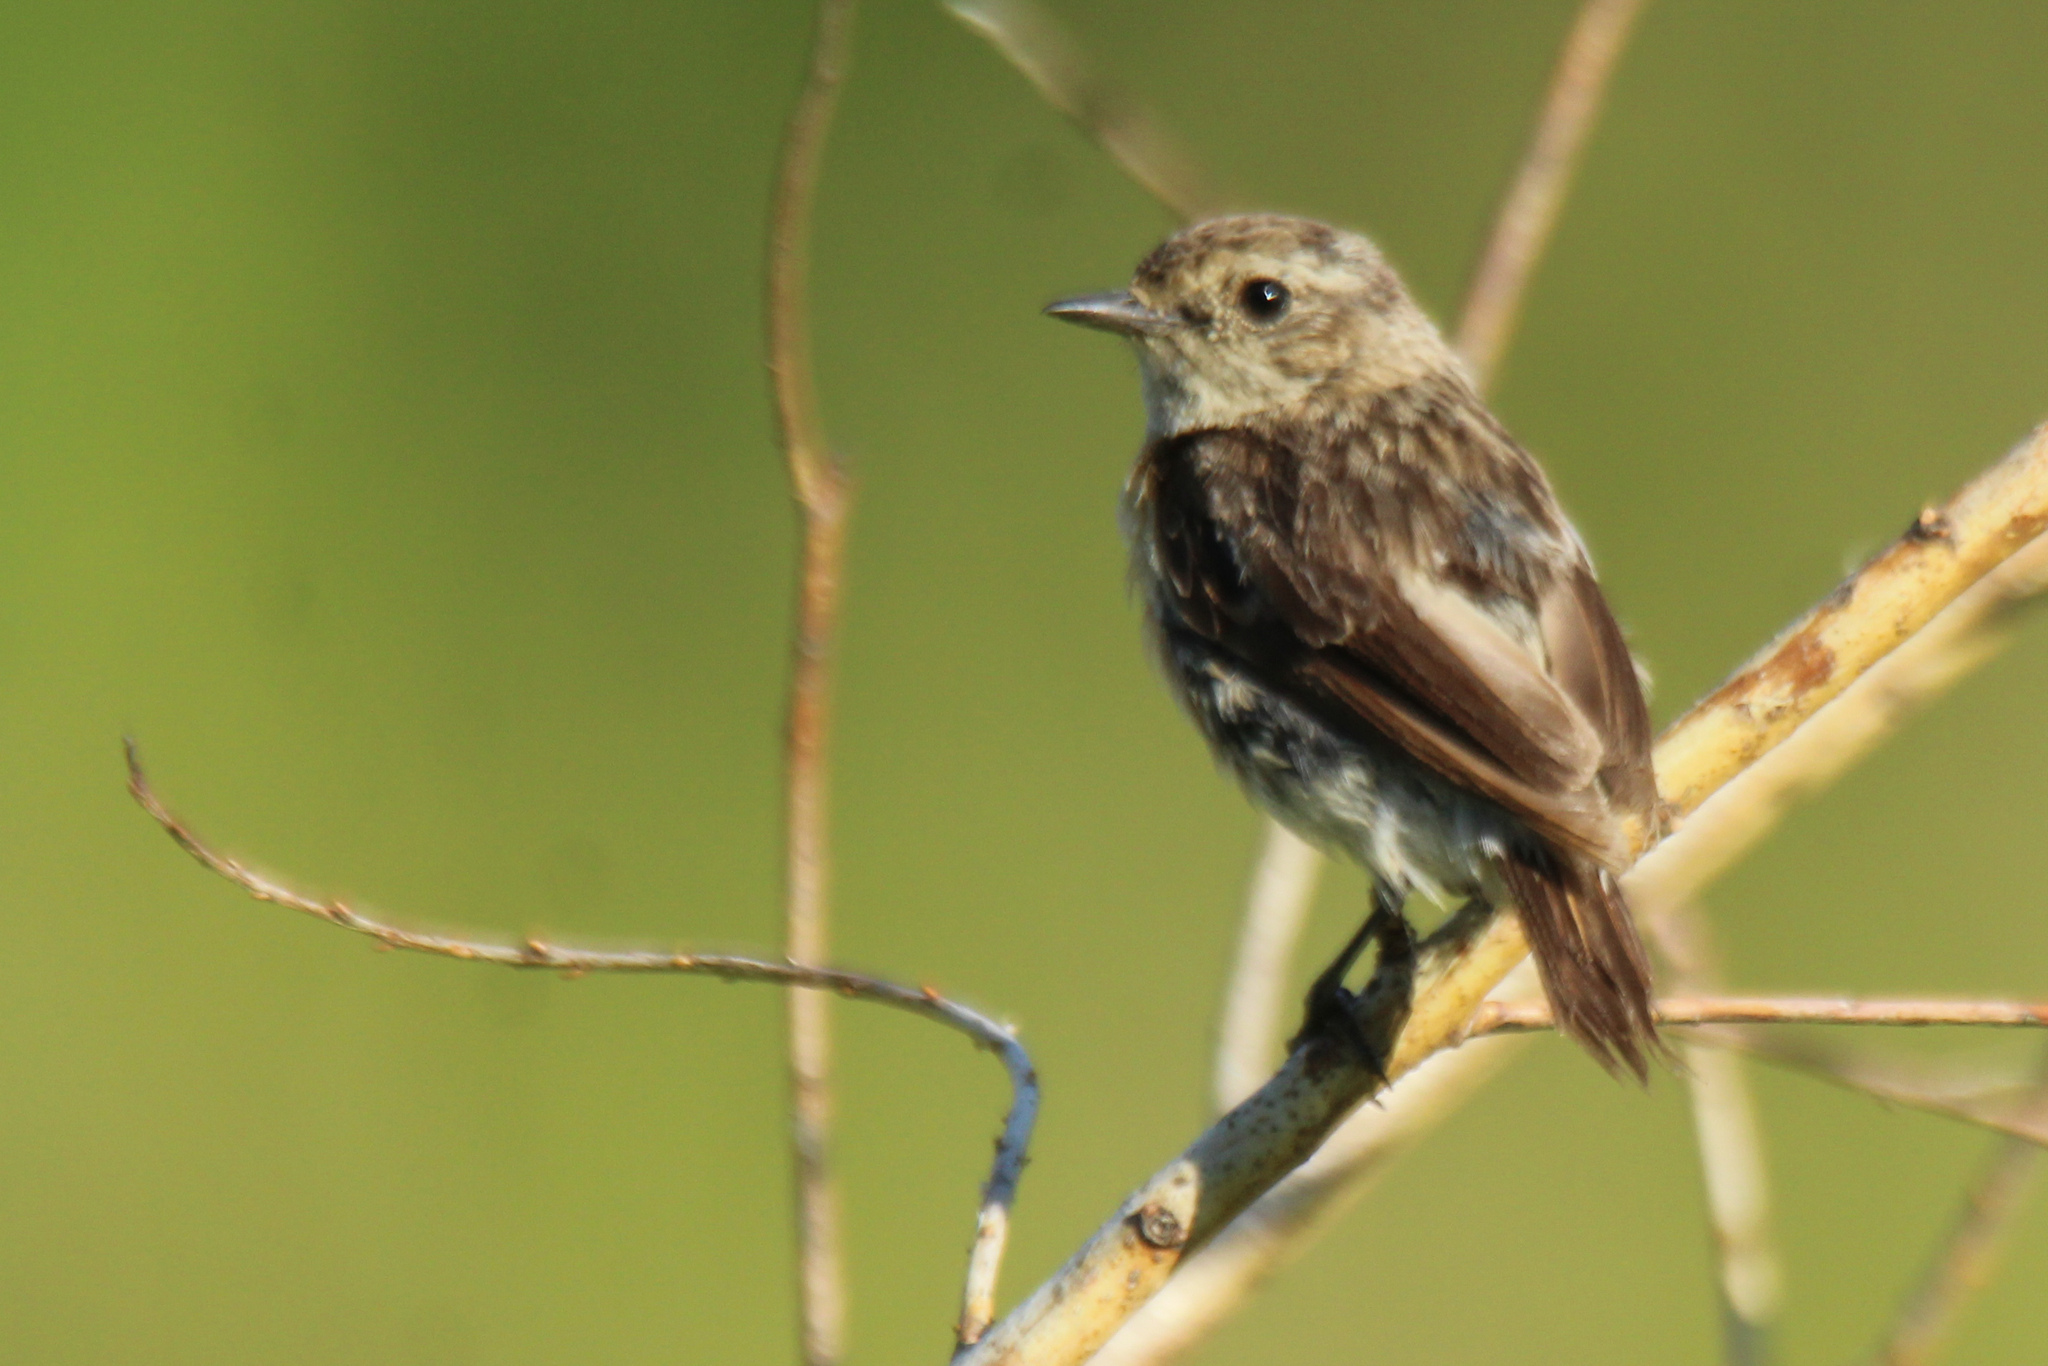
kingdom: Animalia
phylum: Chordata
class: Aves
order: Passeriformes
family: Muscicapidae
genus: Saxicola
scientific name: Saxicola maurus
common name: Siberian stonechat
